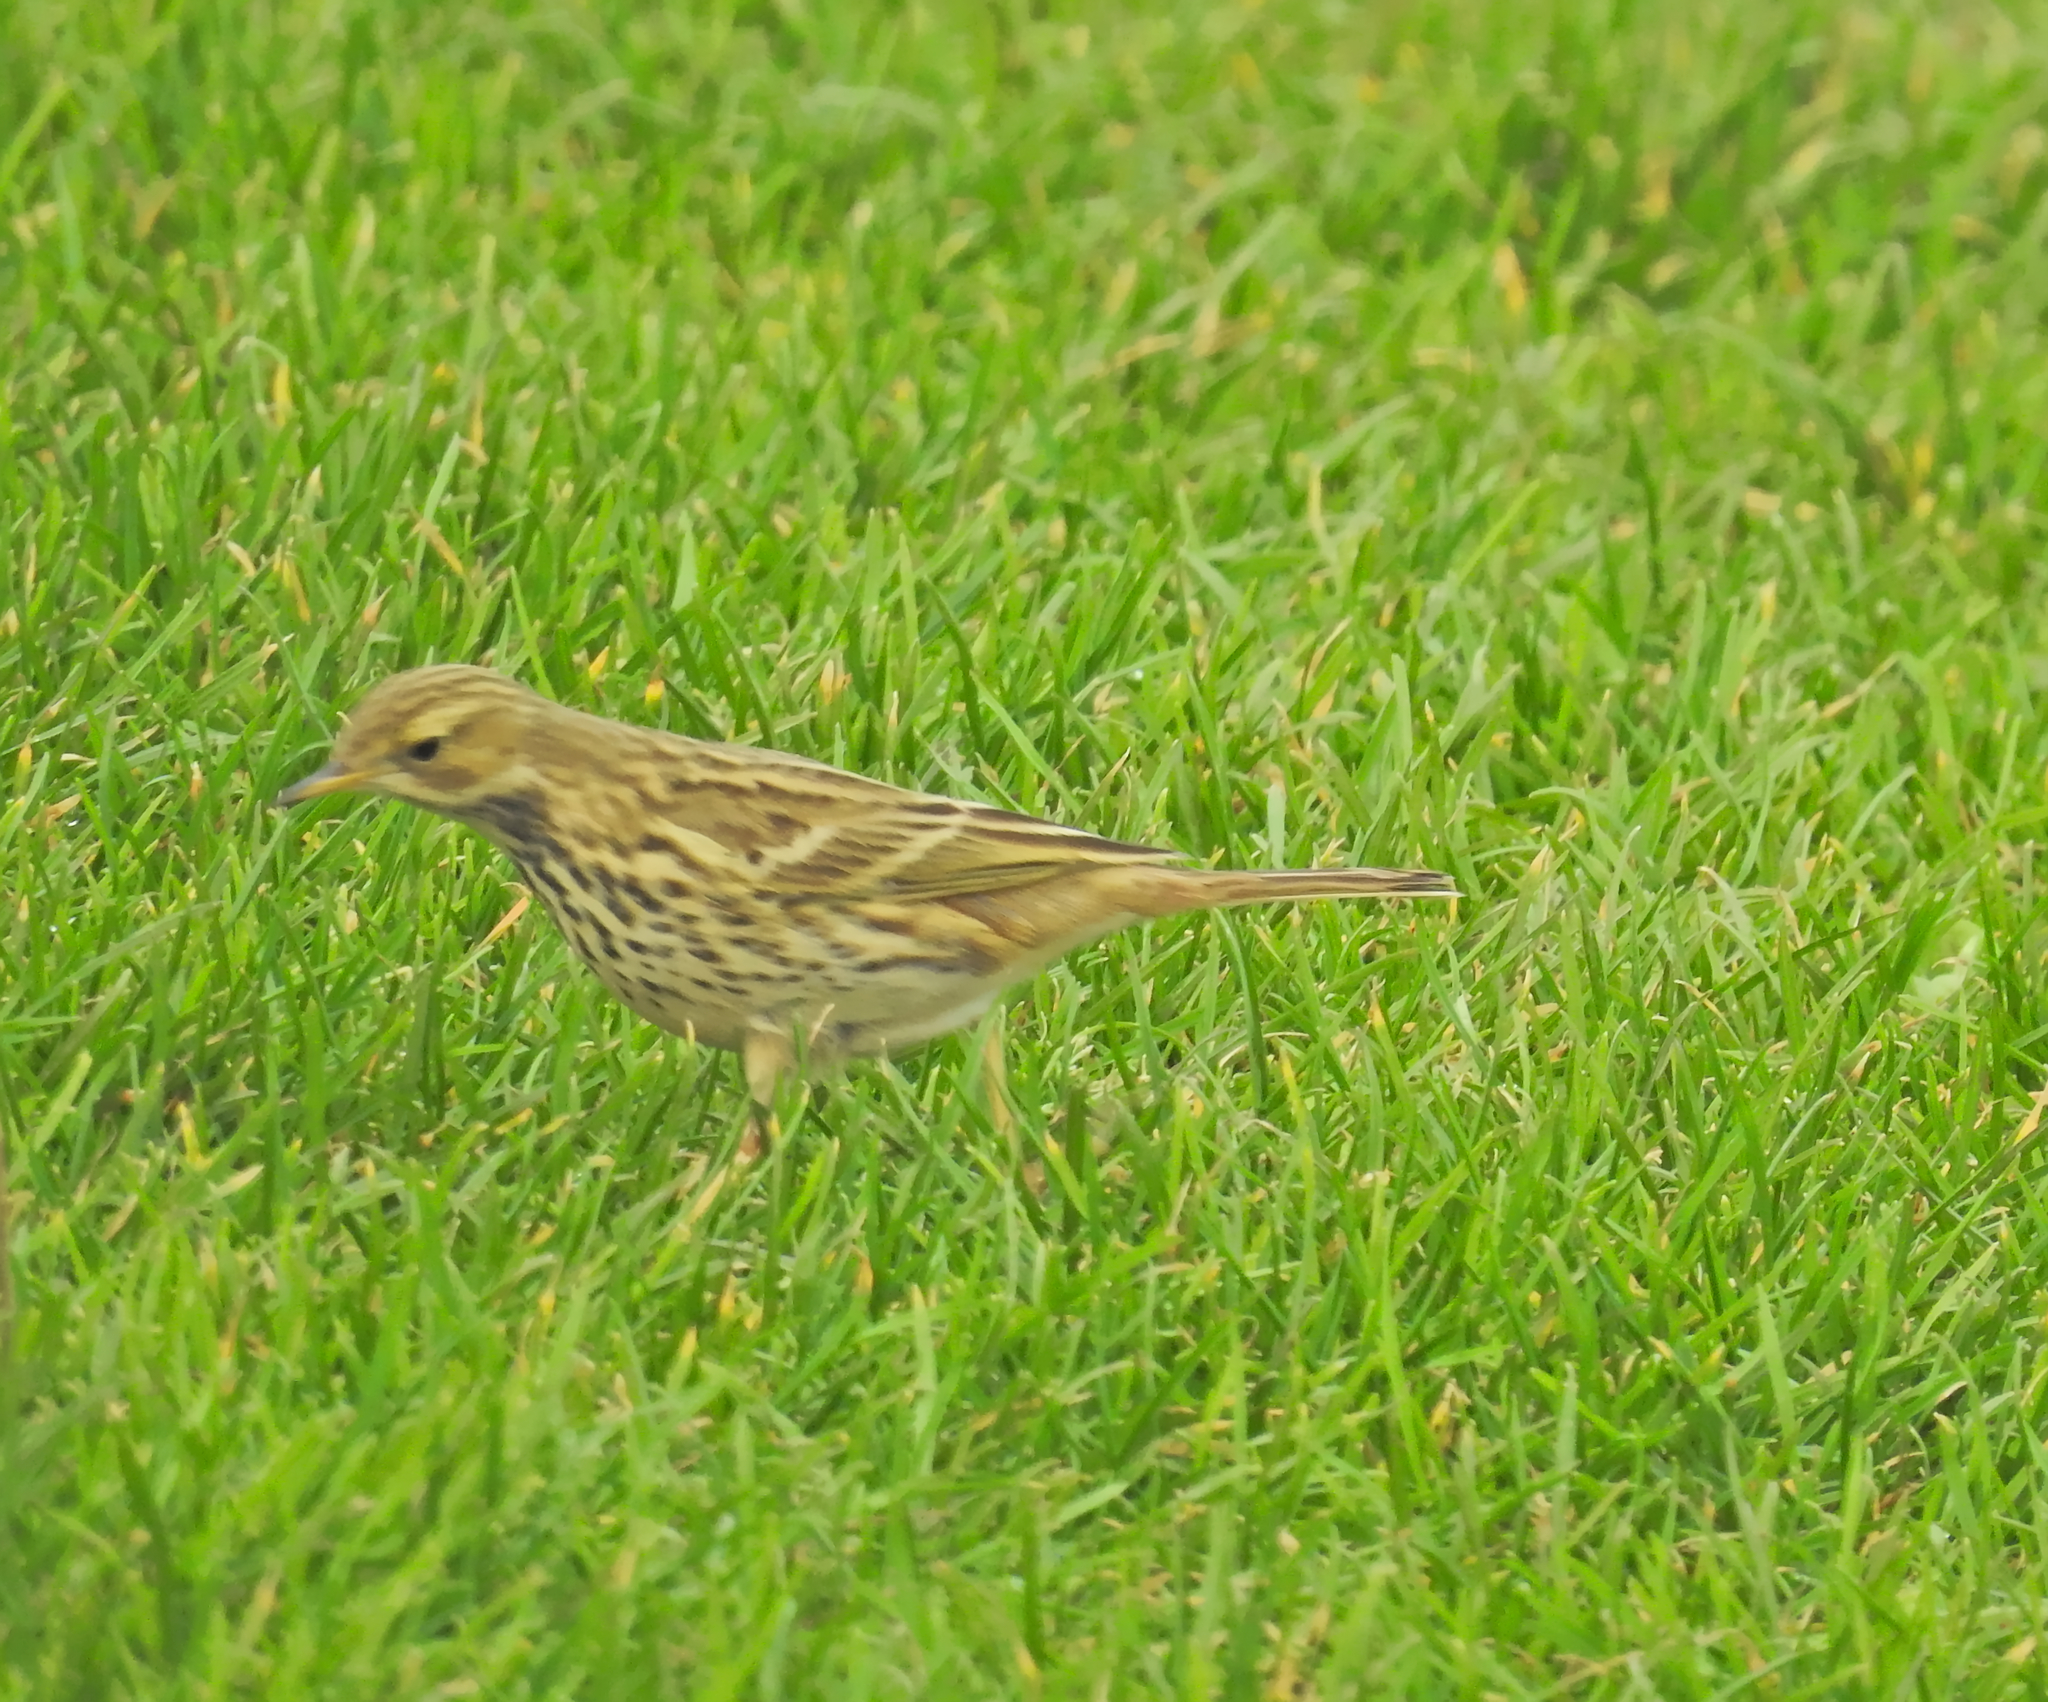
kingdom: Animalia
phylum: Chordata
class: Aves
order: Passeriformes
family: Motacillidae
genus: Anthus
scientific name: Anthus pratensis
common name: Meadow pipit
